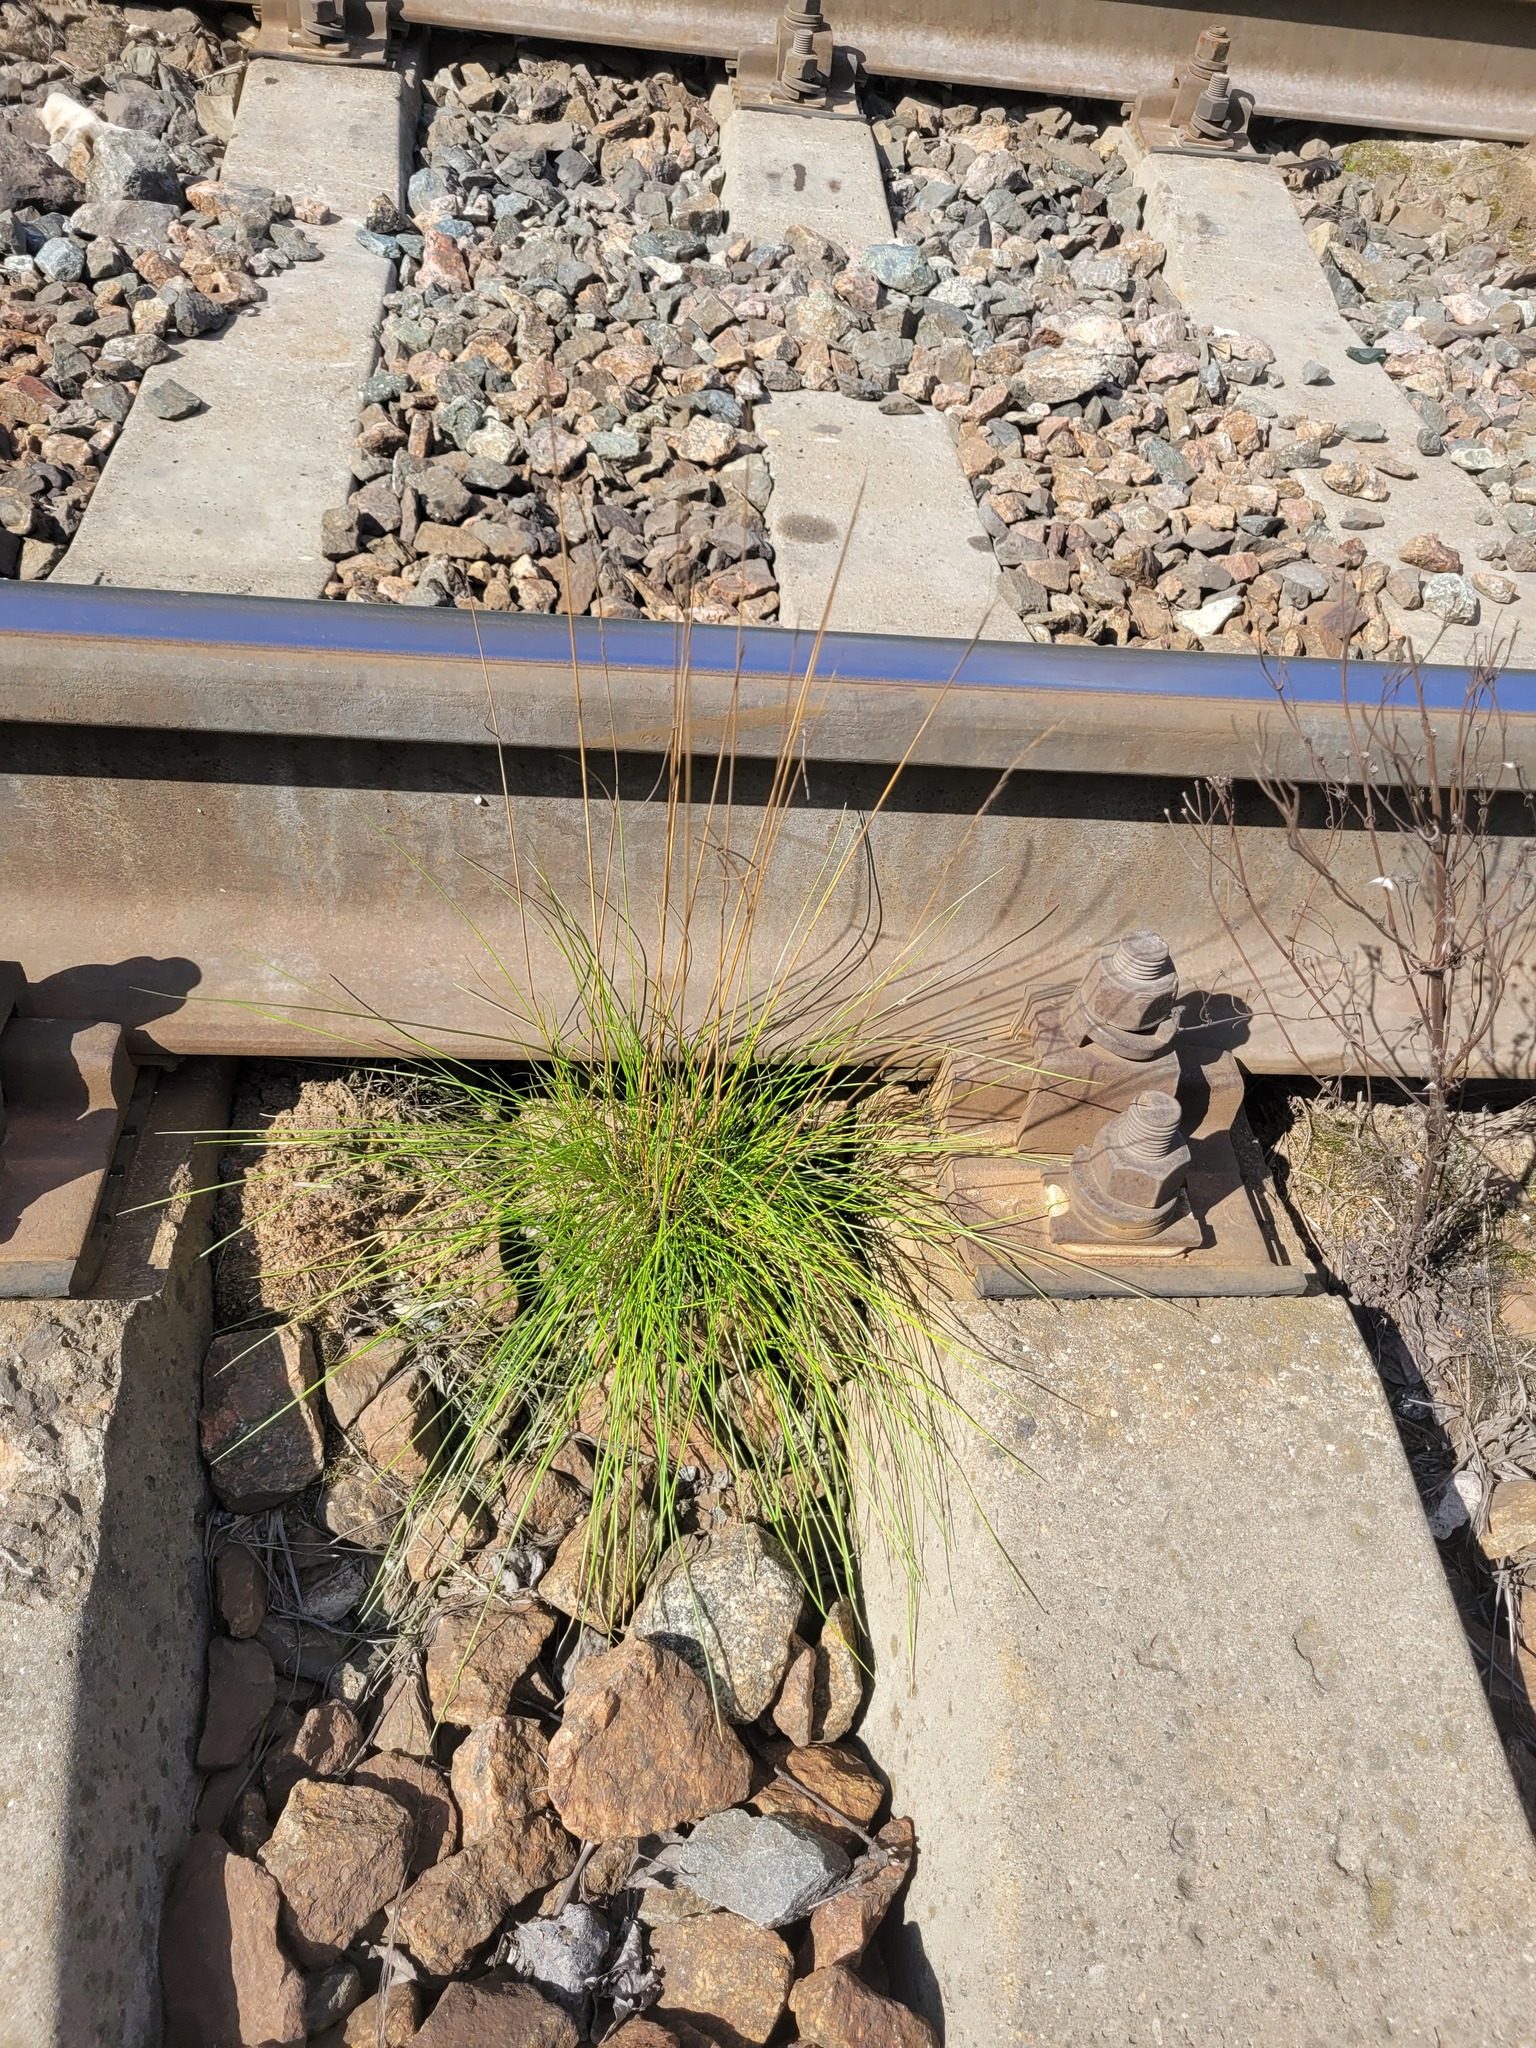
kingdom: Plantae
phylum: Tracheophyta
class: Liliopsida
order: Poales
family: Poaceae
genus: Festuca
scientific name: Festuca rubra
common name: Red fescue
